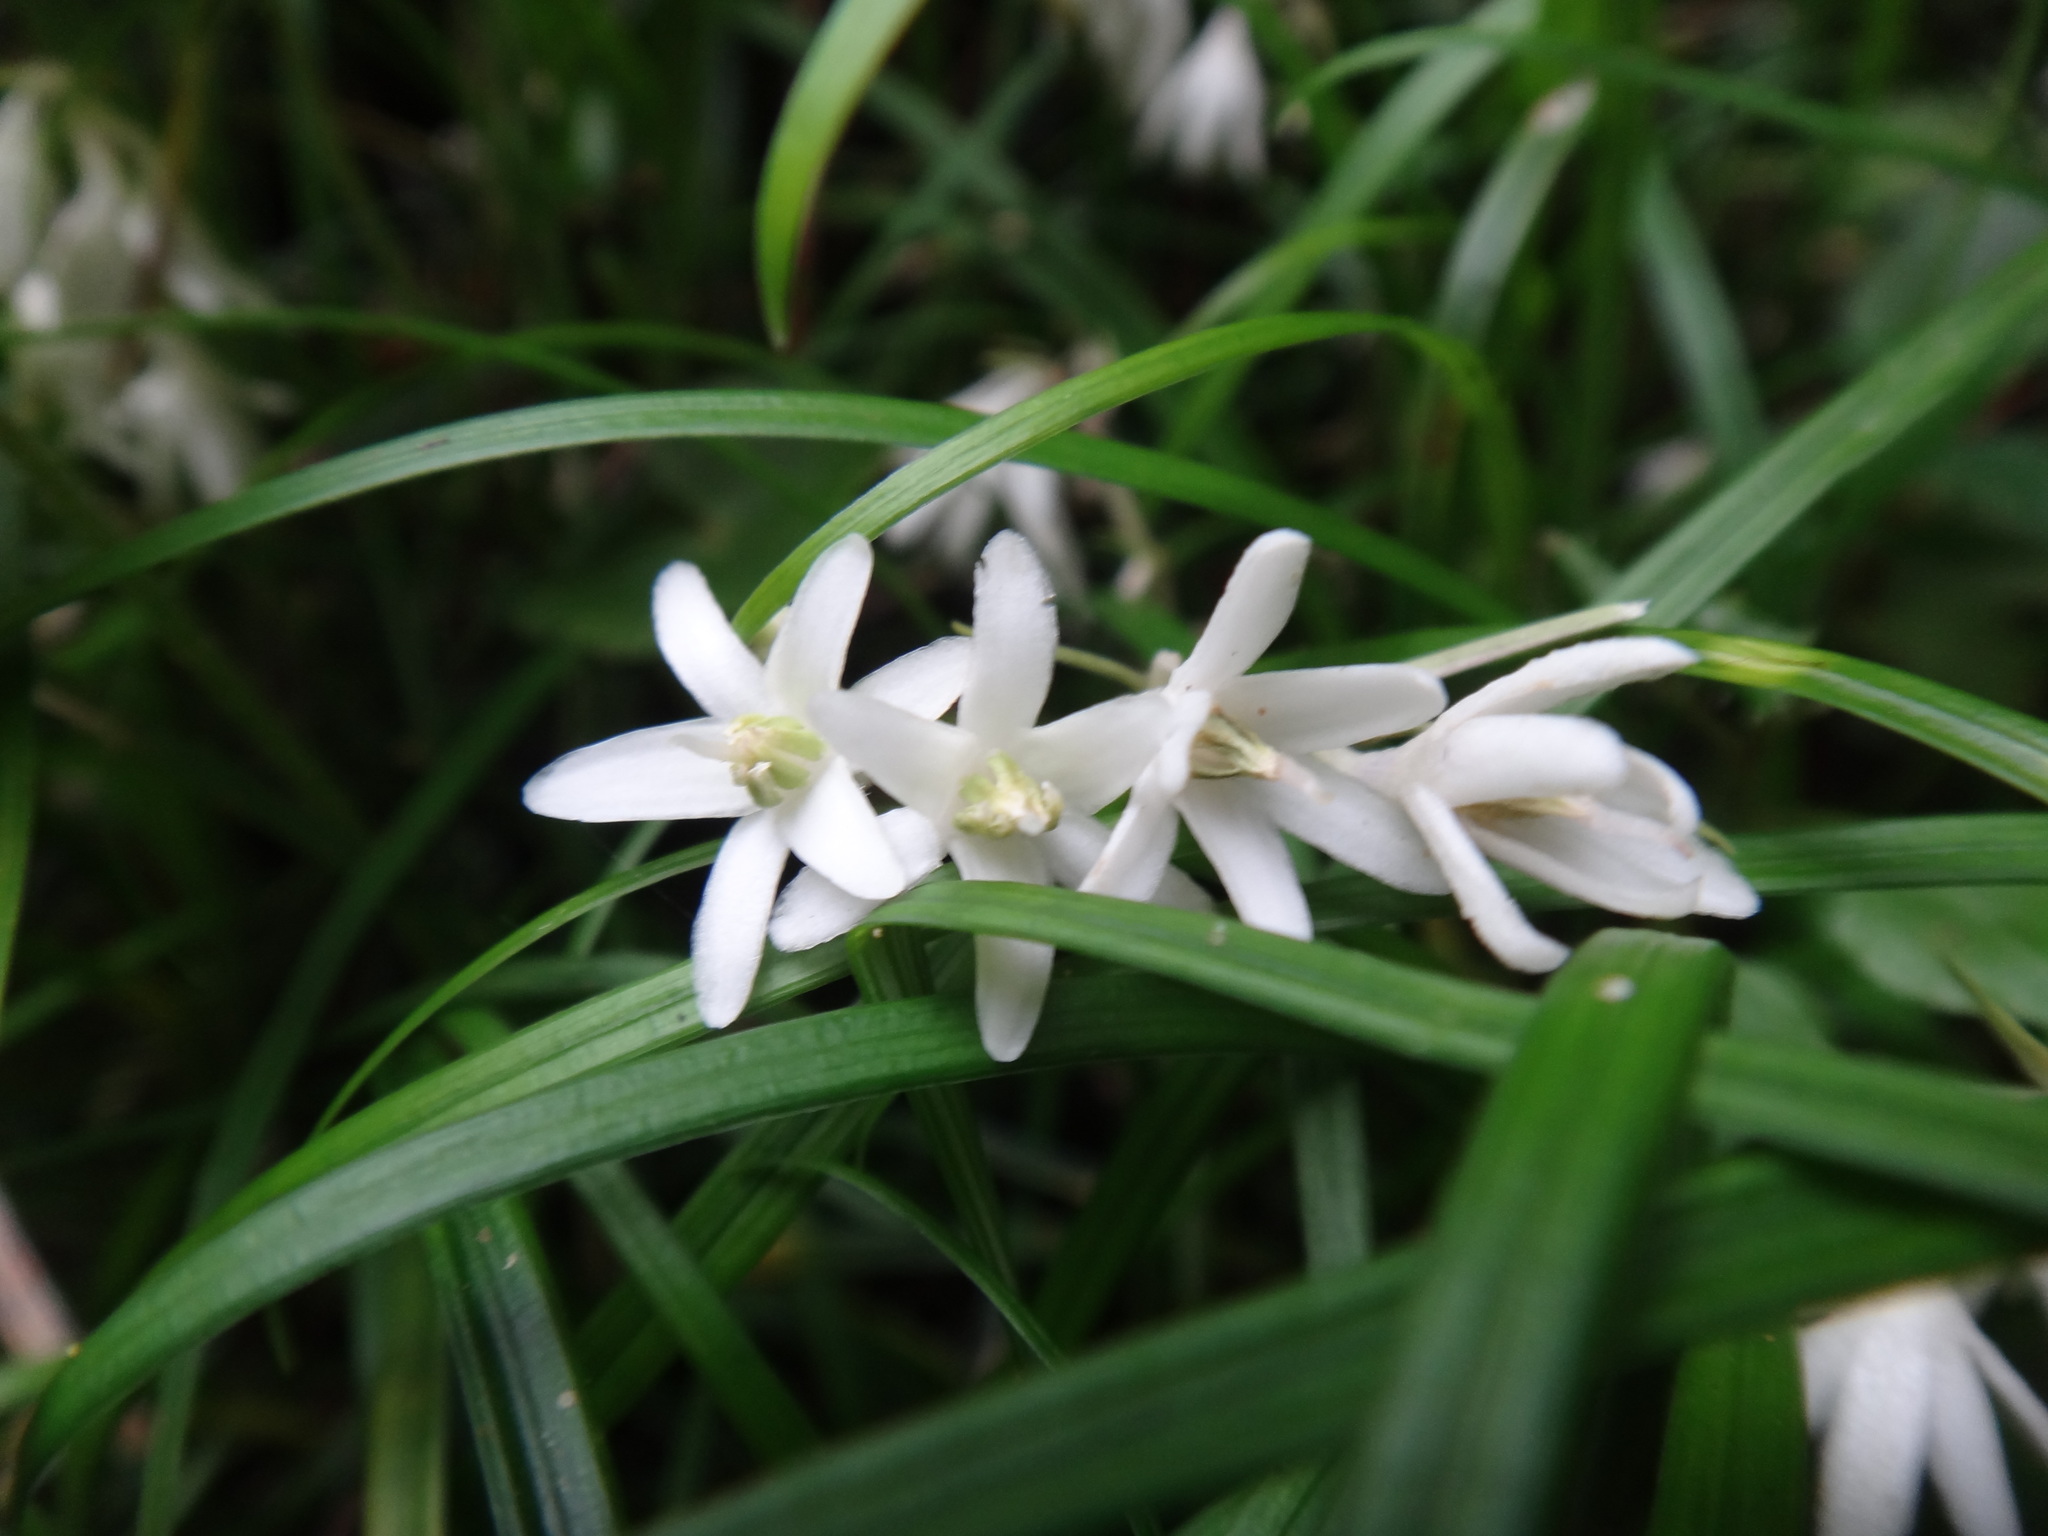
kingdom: Plantae
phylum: Tracheophyta
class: Liliopsida
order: Asparagales
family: Asparagaceae
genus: Ophiopogon
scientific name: Ophiopogon intermedius
